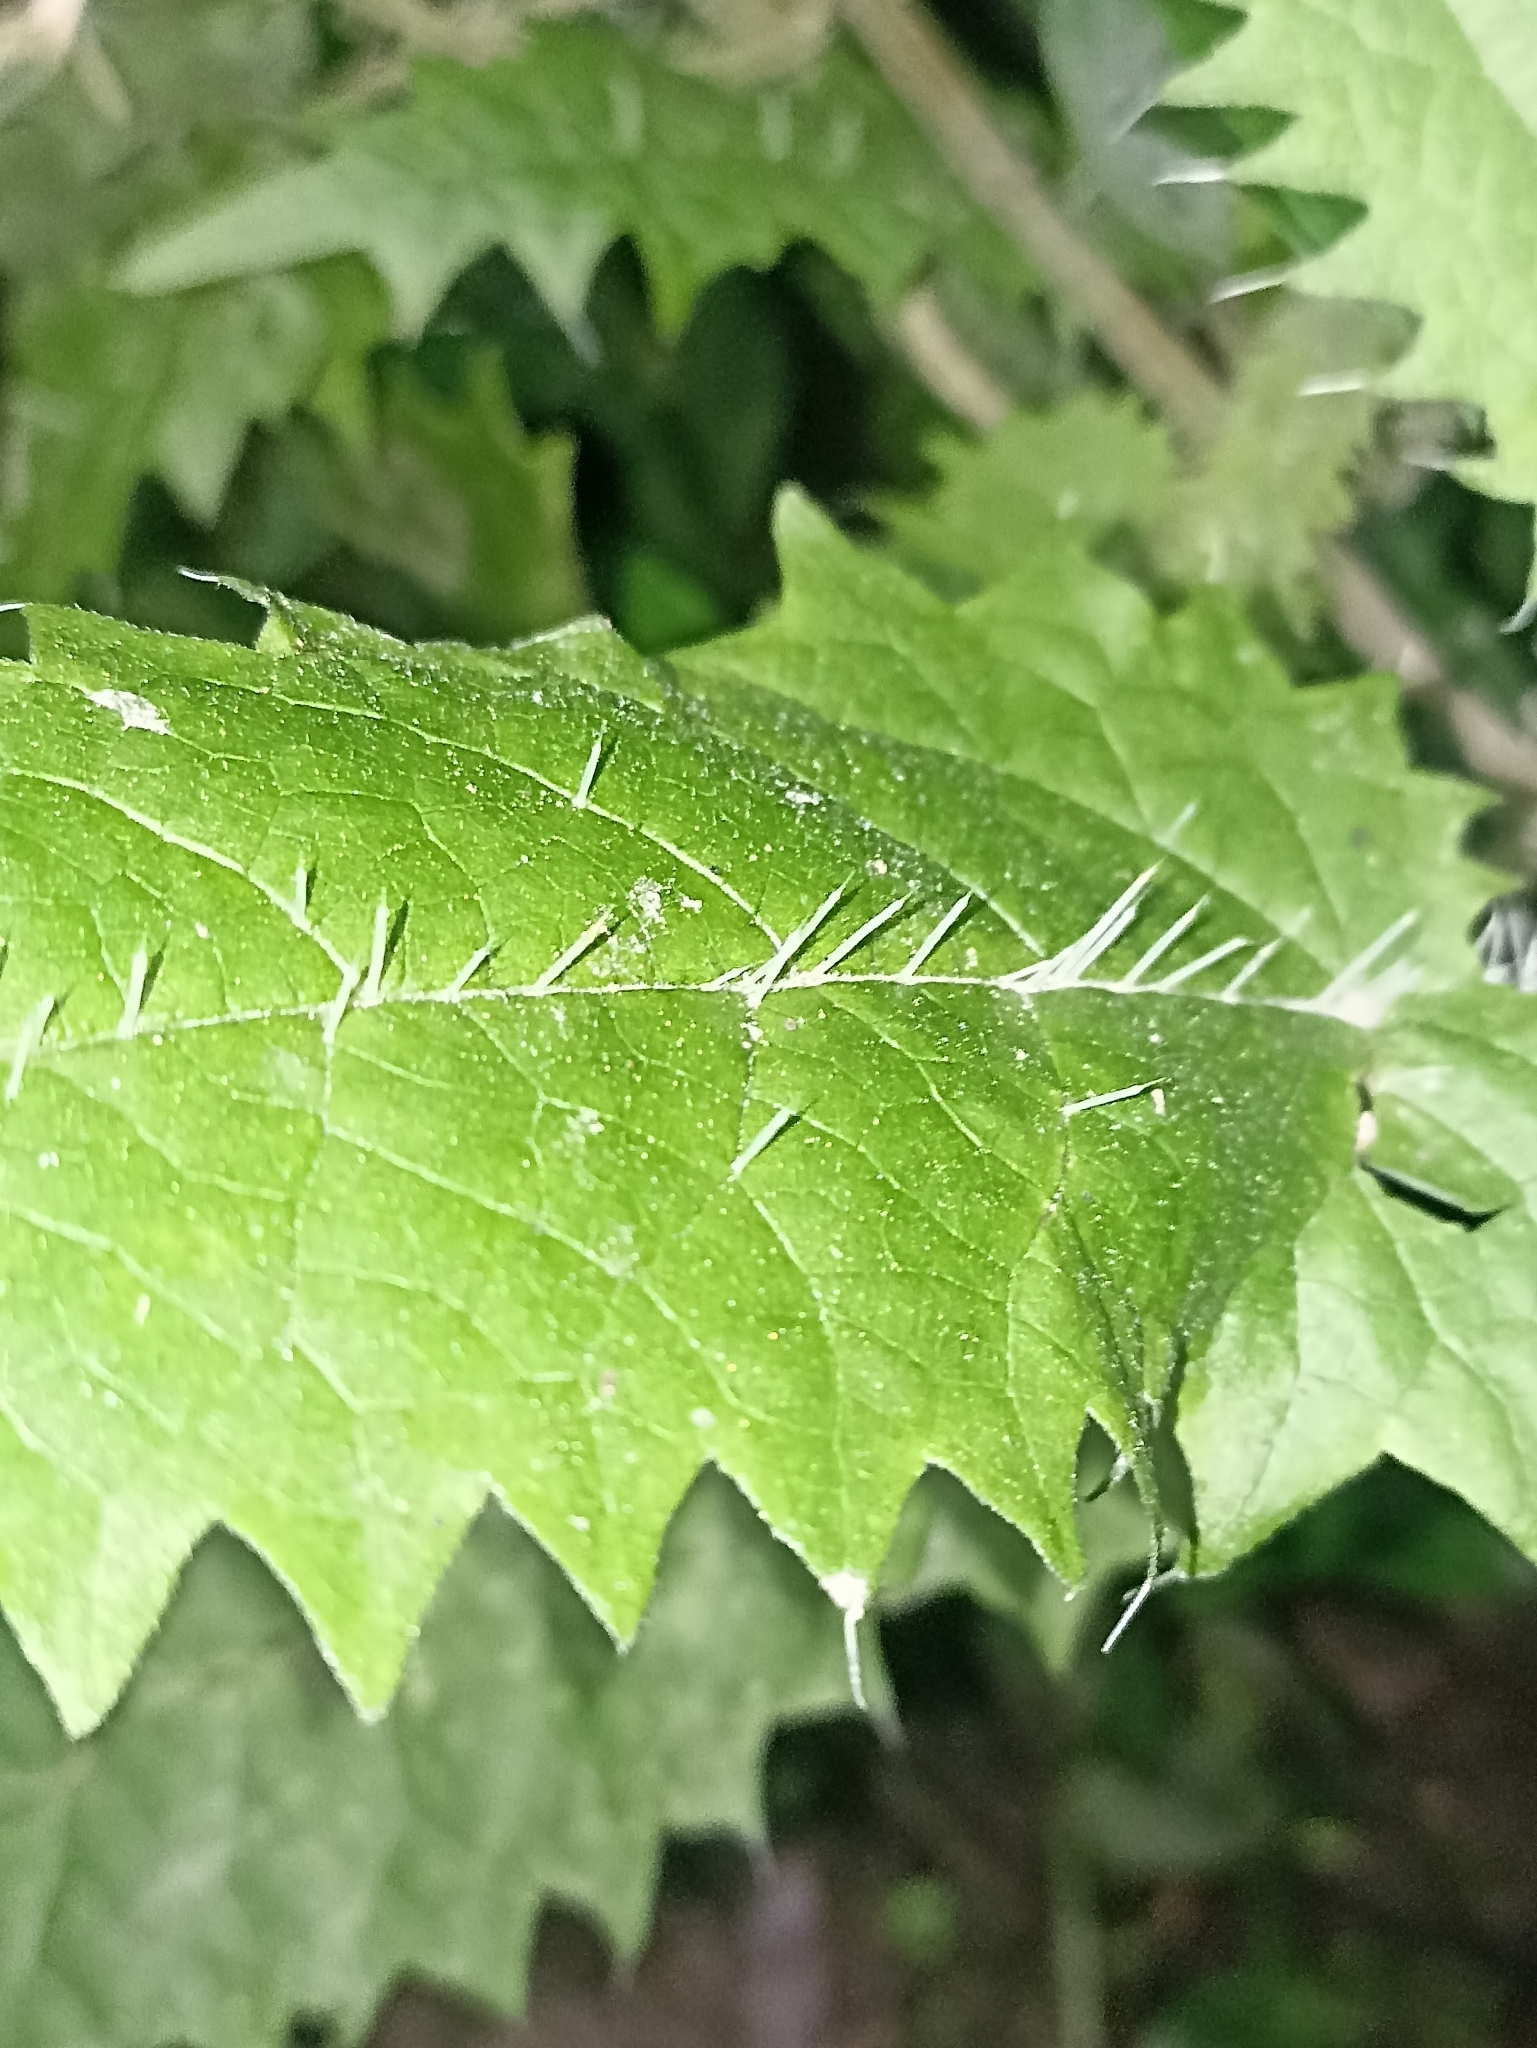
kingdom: Plantae
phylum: Tracheophyta
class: Magnoliopsida
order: Rosales
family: Urticaceae
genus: Urtica
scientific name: Urtica ferox
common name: Tree nettle
